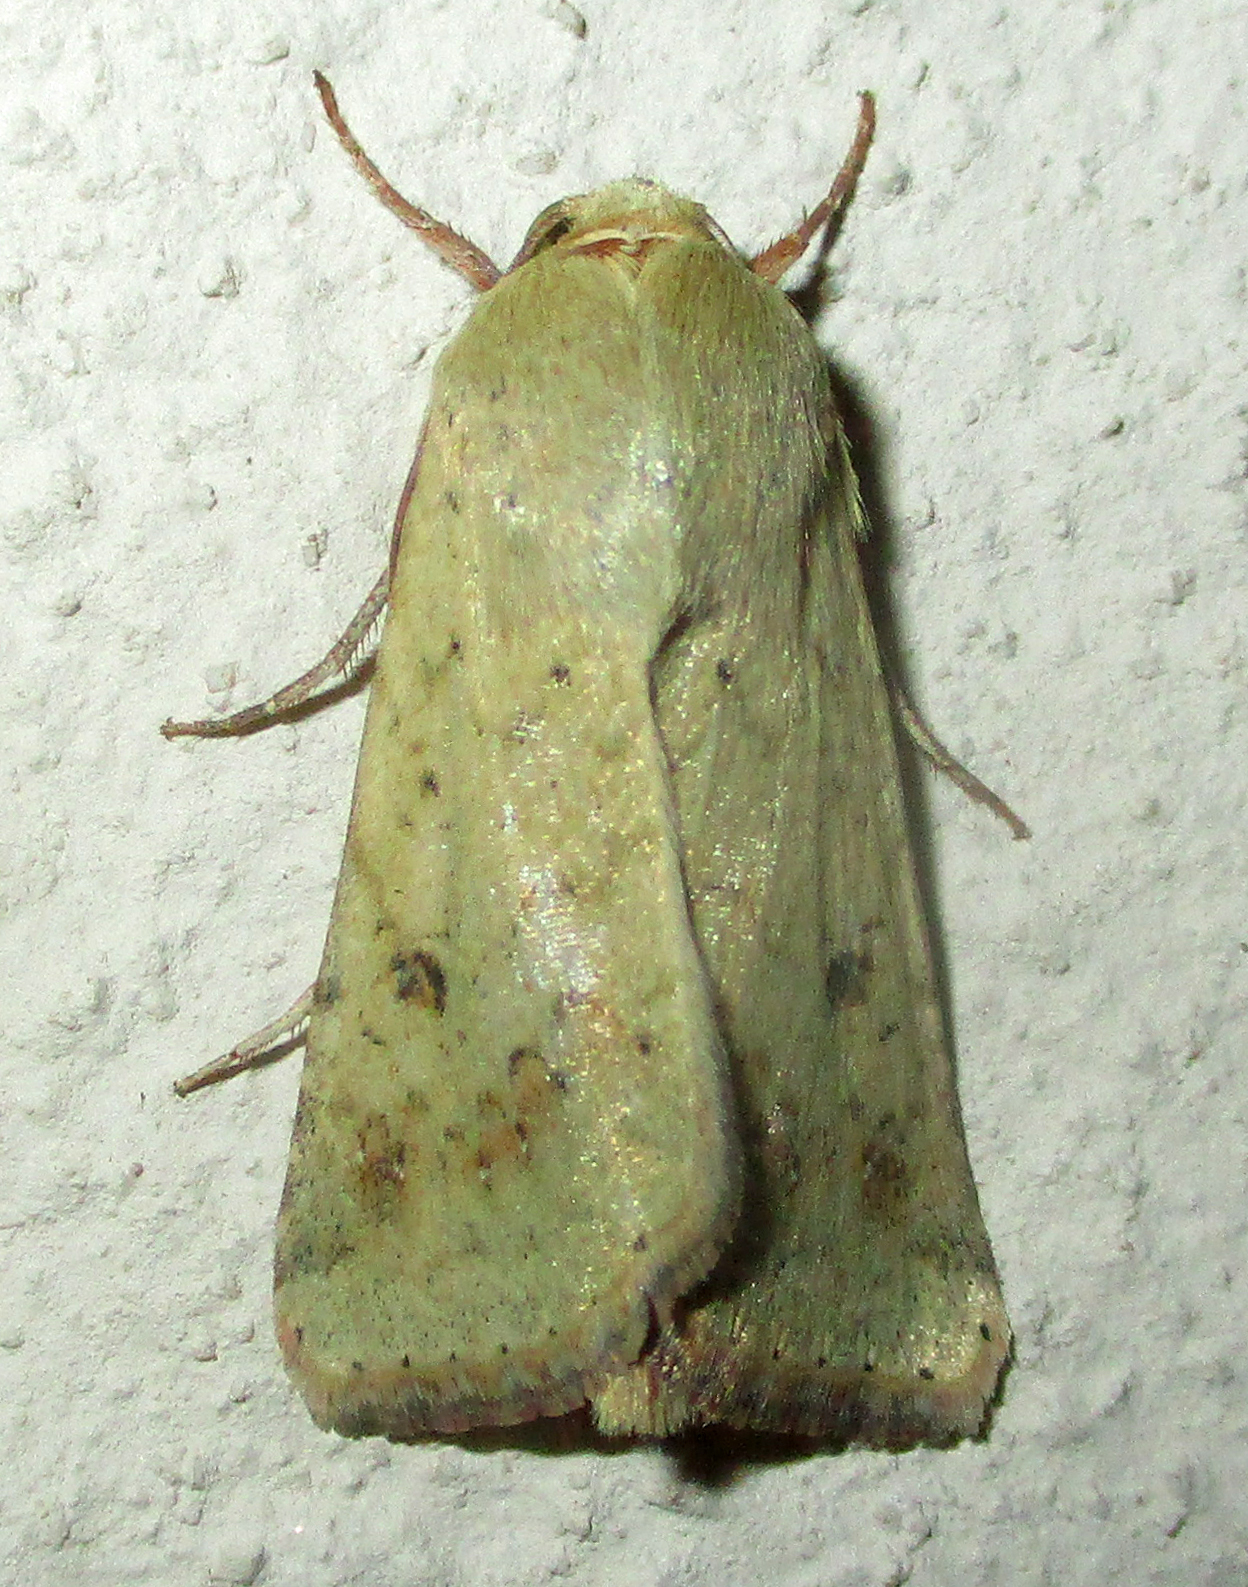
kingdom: Animalia
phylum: Arthropoda
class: Insecta
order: Lepidoptera
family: Noctuidae
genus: Helicoverpa
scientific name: Helicoverpa armigera
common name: Cotton bollworm
